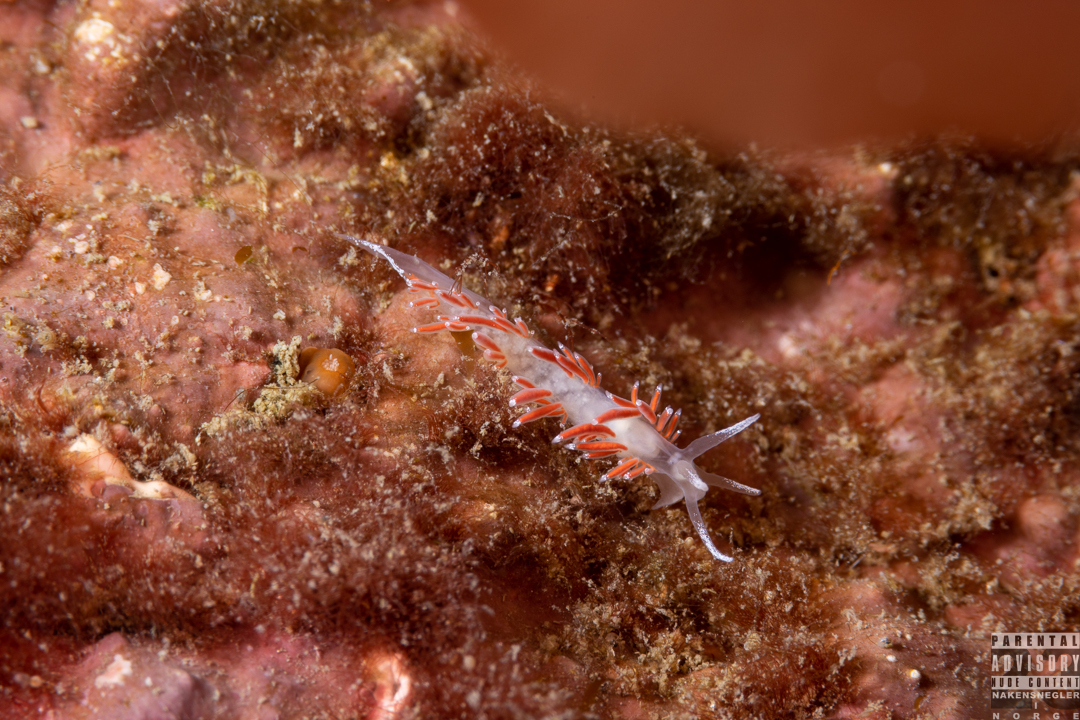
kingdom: Animalia
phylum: Mollusca
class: Gastropoda
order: Nudibranchia
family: Coryphellidae
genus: Coryphella
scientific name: Coryphella gracilis
